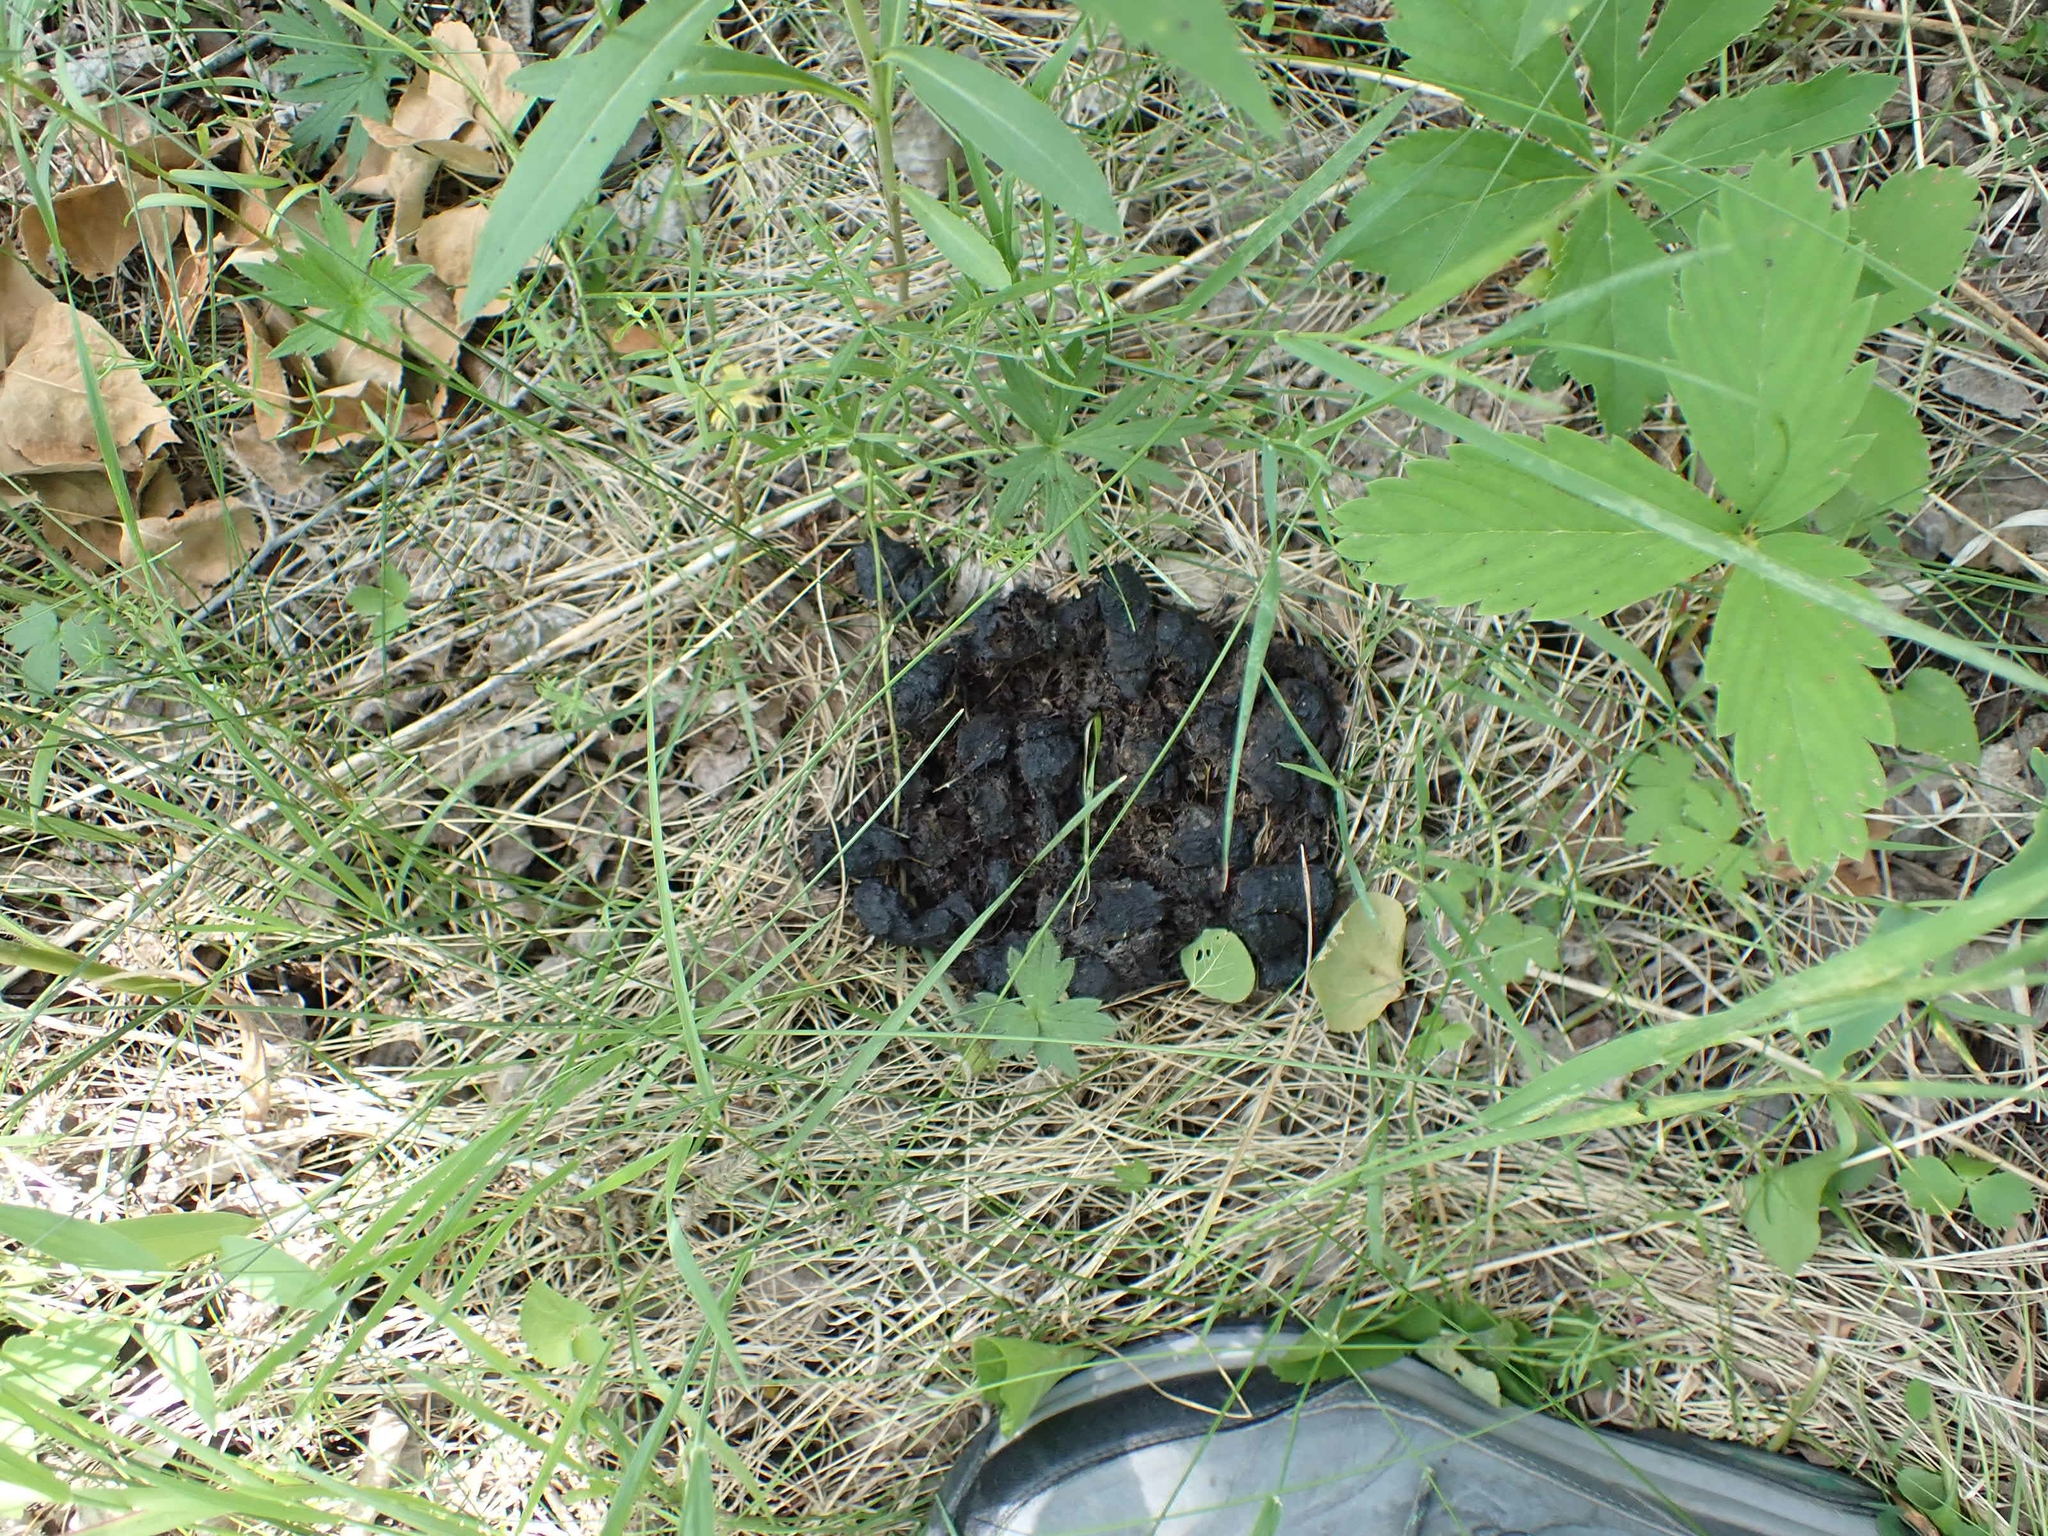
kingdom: Animalia
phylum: Chordata
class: Mammalia
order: Carnivora
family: Ursidae
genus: Ursus
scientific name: Ursus americanus
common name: American black bear
